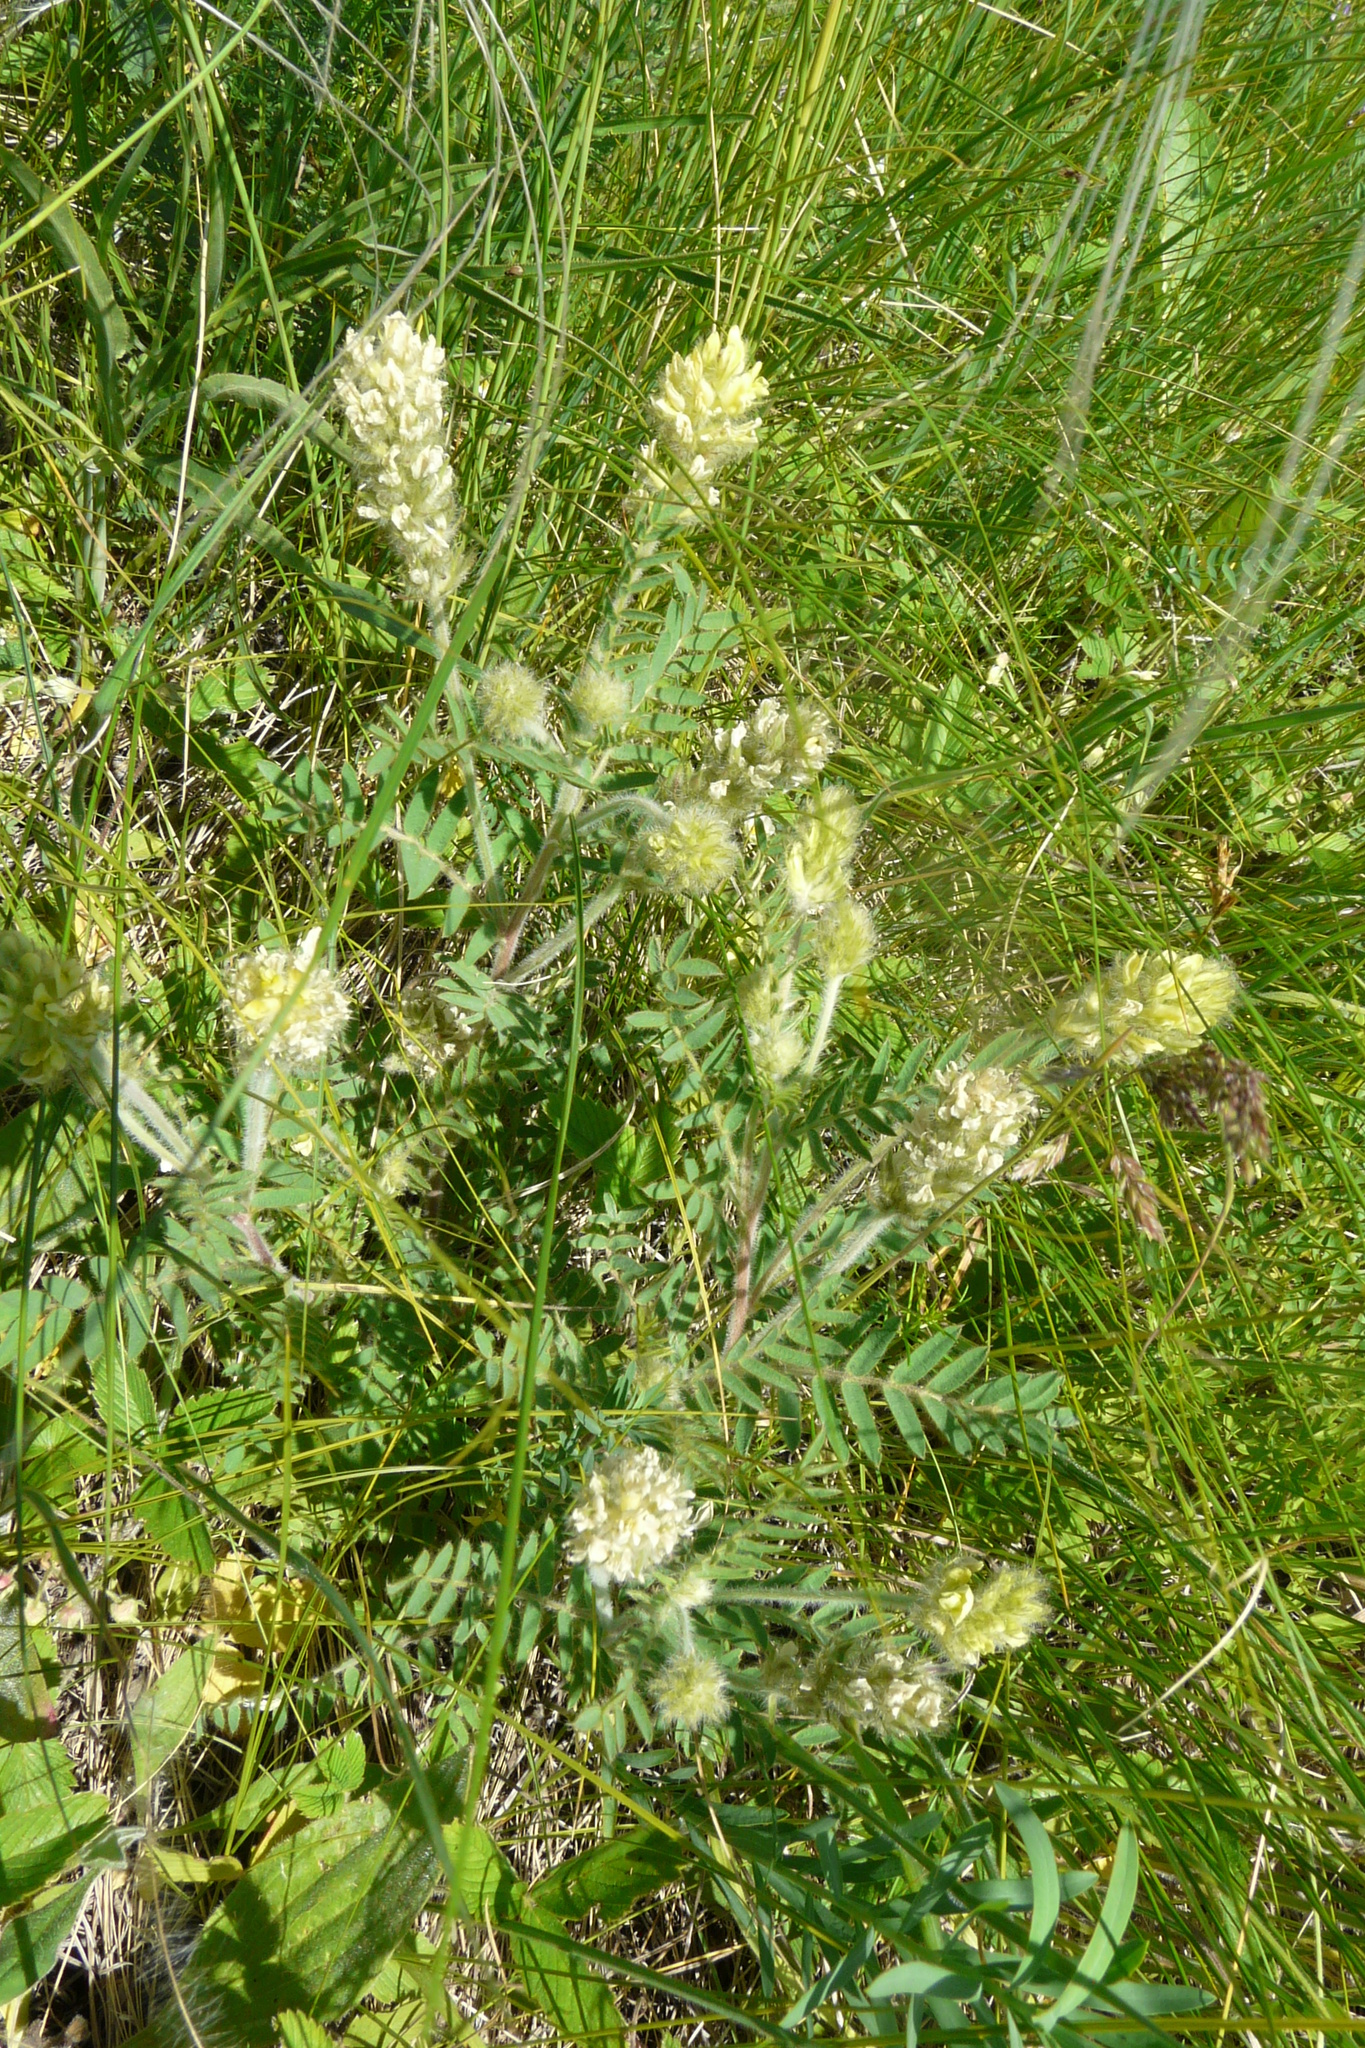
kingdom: Plantae
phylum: Tracheophyta
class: Magnoliopsida
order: Fabales
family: Fabaceae
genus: Oxytropis
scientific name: Oxytropis pilosa
